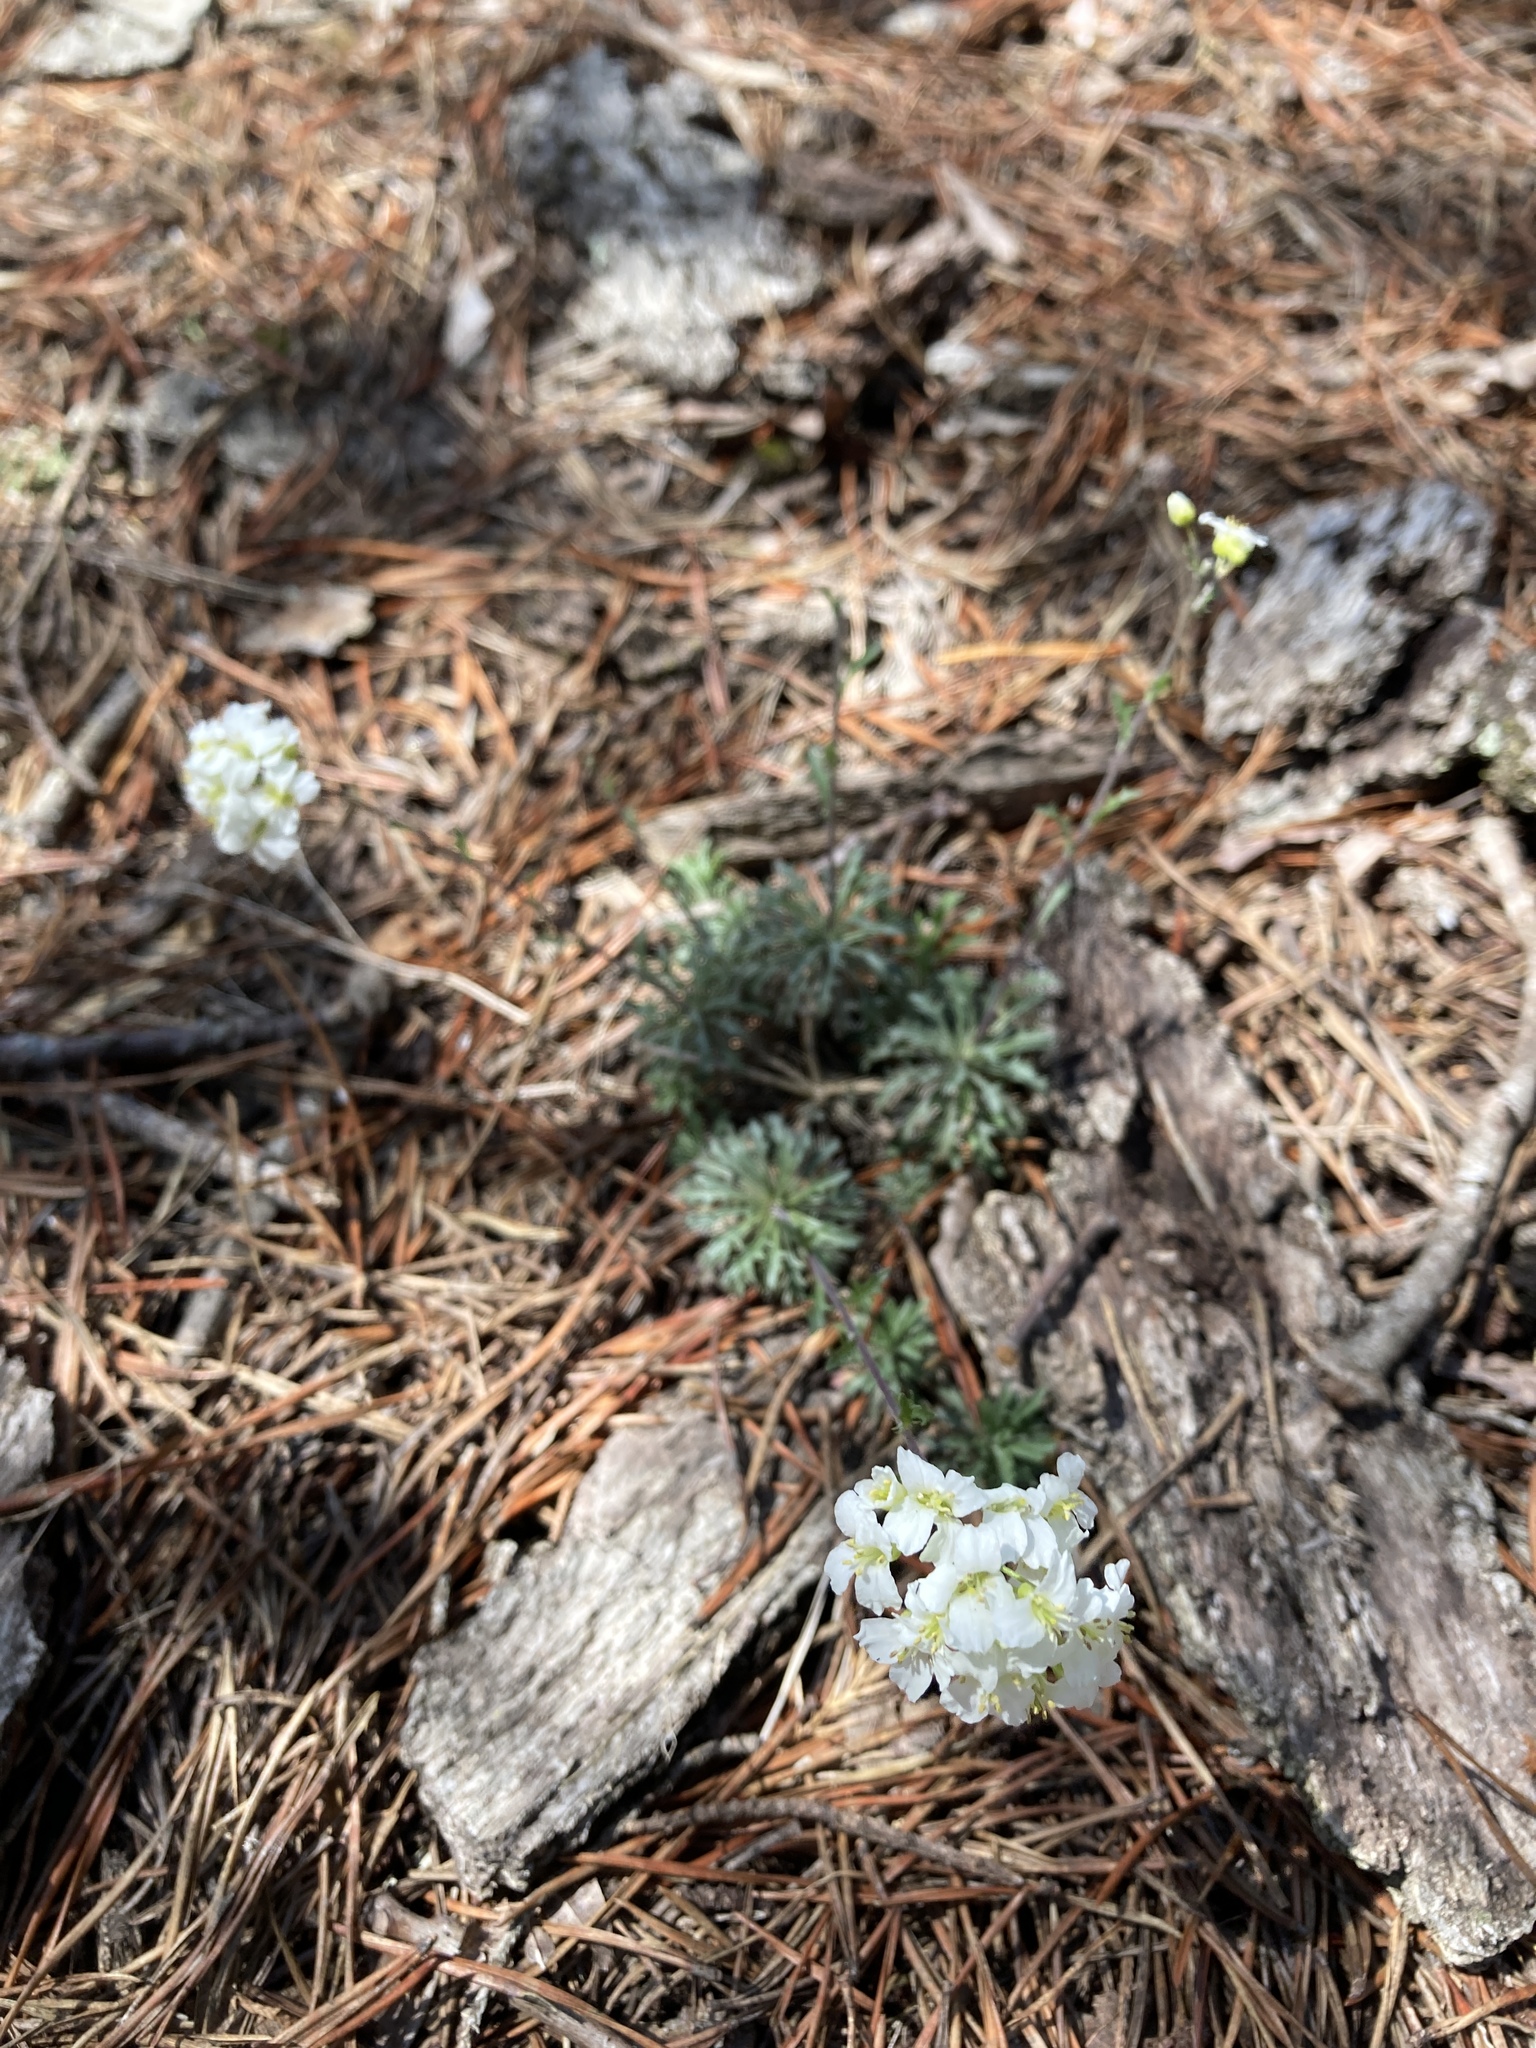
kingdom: Plantae
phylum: Tracheophyta
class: Magnoliopsida
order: Brassicales
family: Brassicaceae
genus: Draba
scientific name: Draba ramosissima
